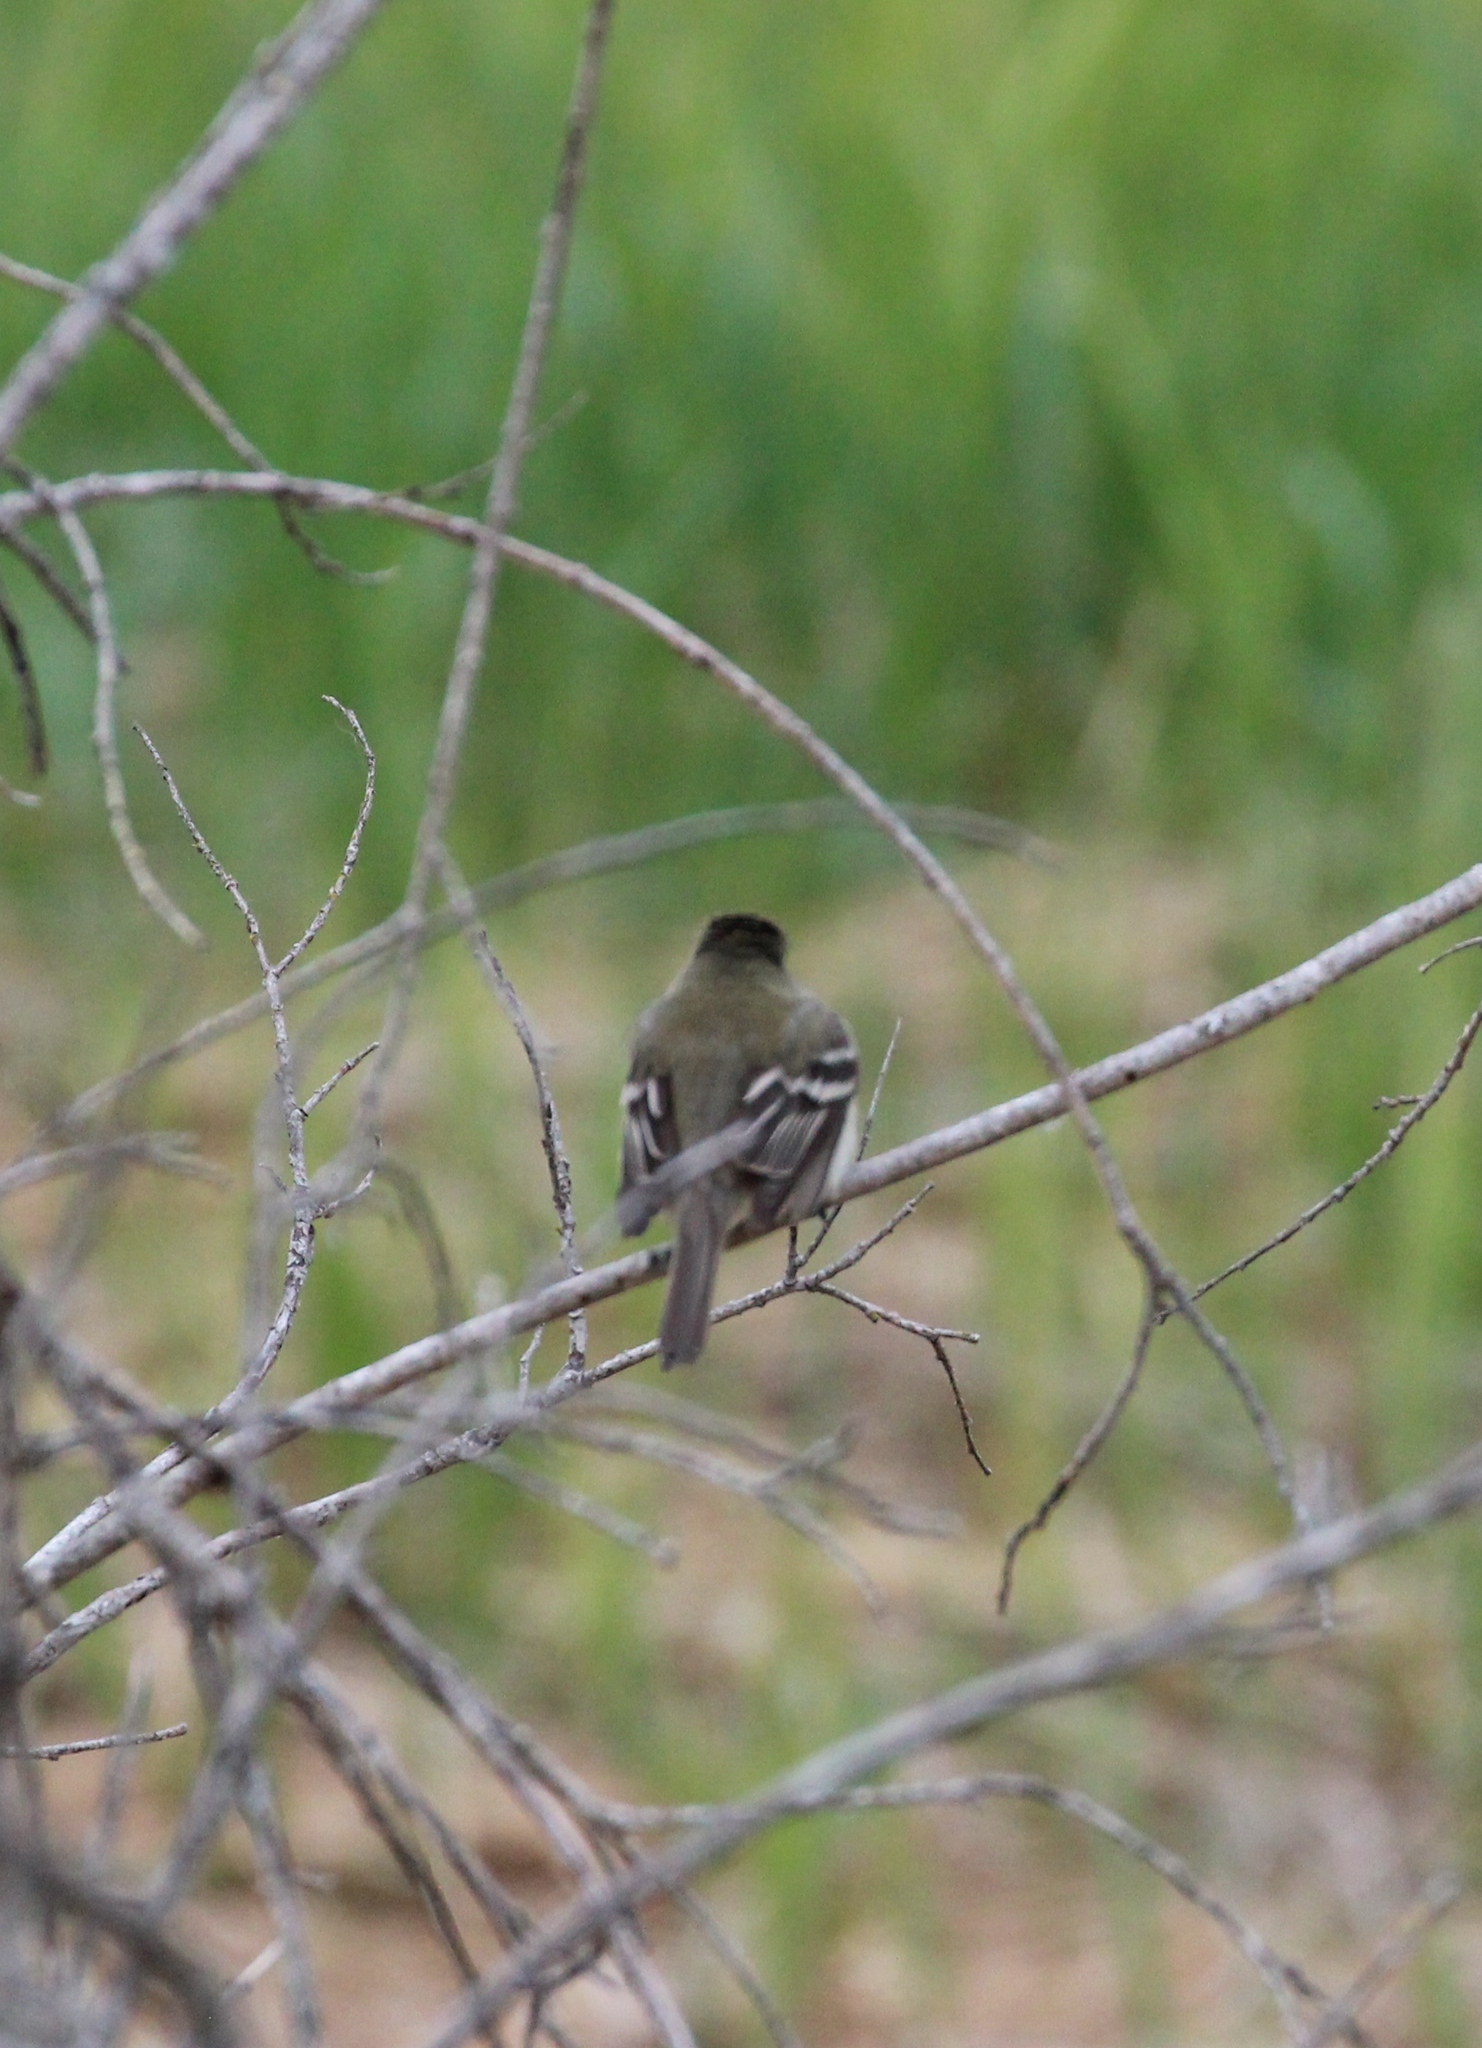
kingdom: Animalia
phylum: Chordata
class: Aves
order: Passeriformes
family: Tyrannidae
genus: Empidonax
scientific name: Empidonax
